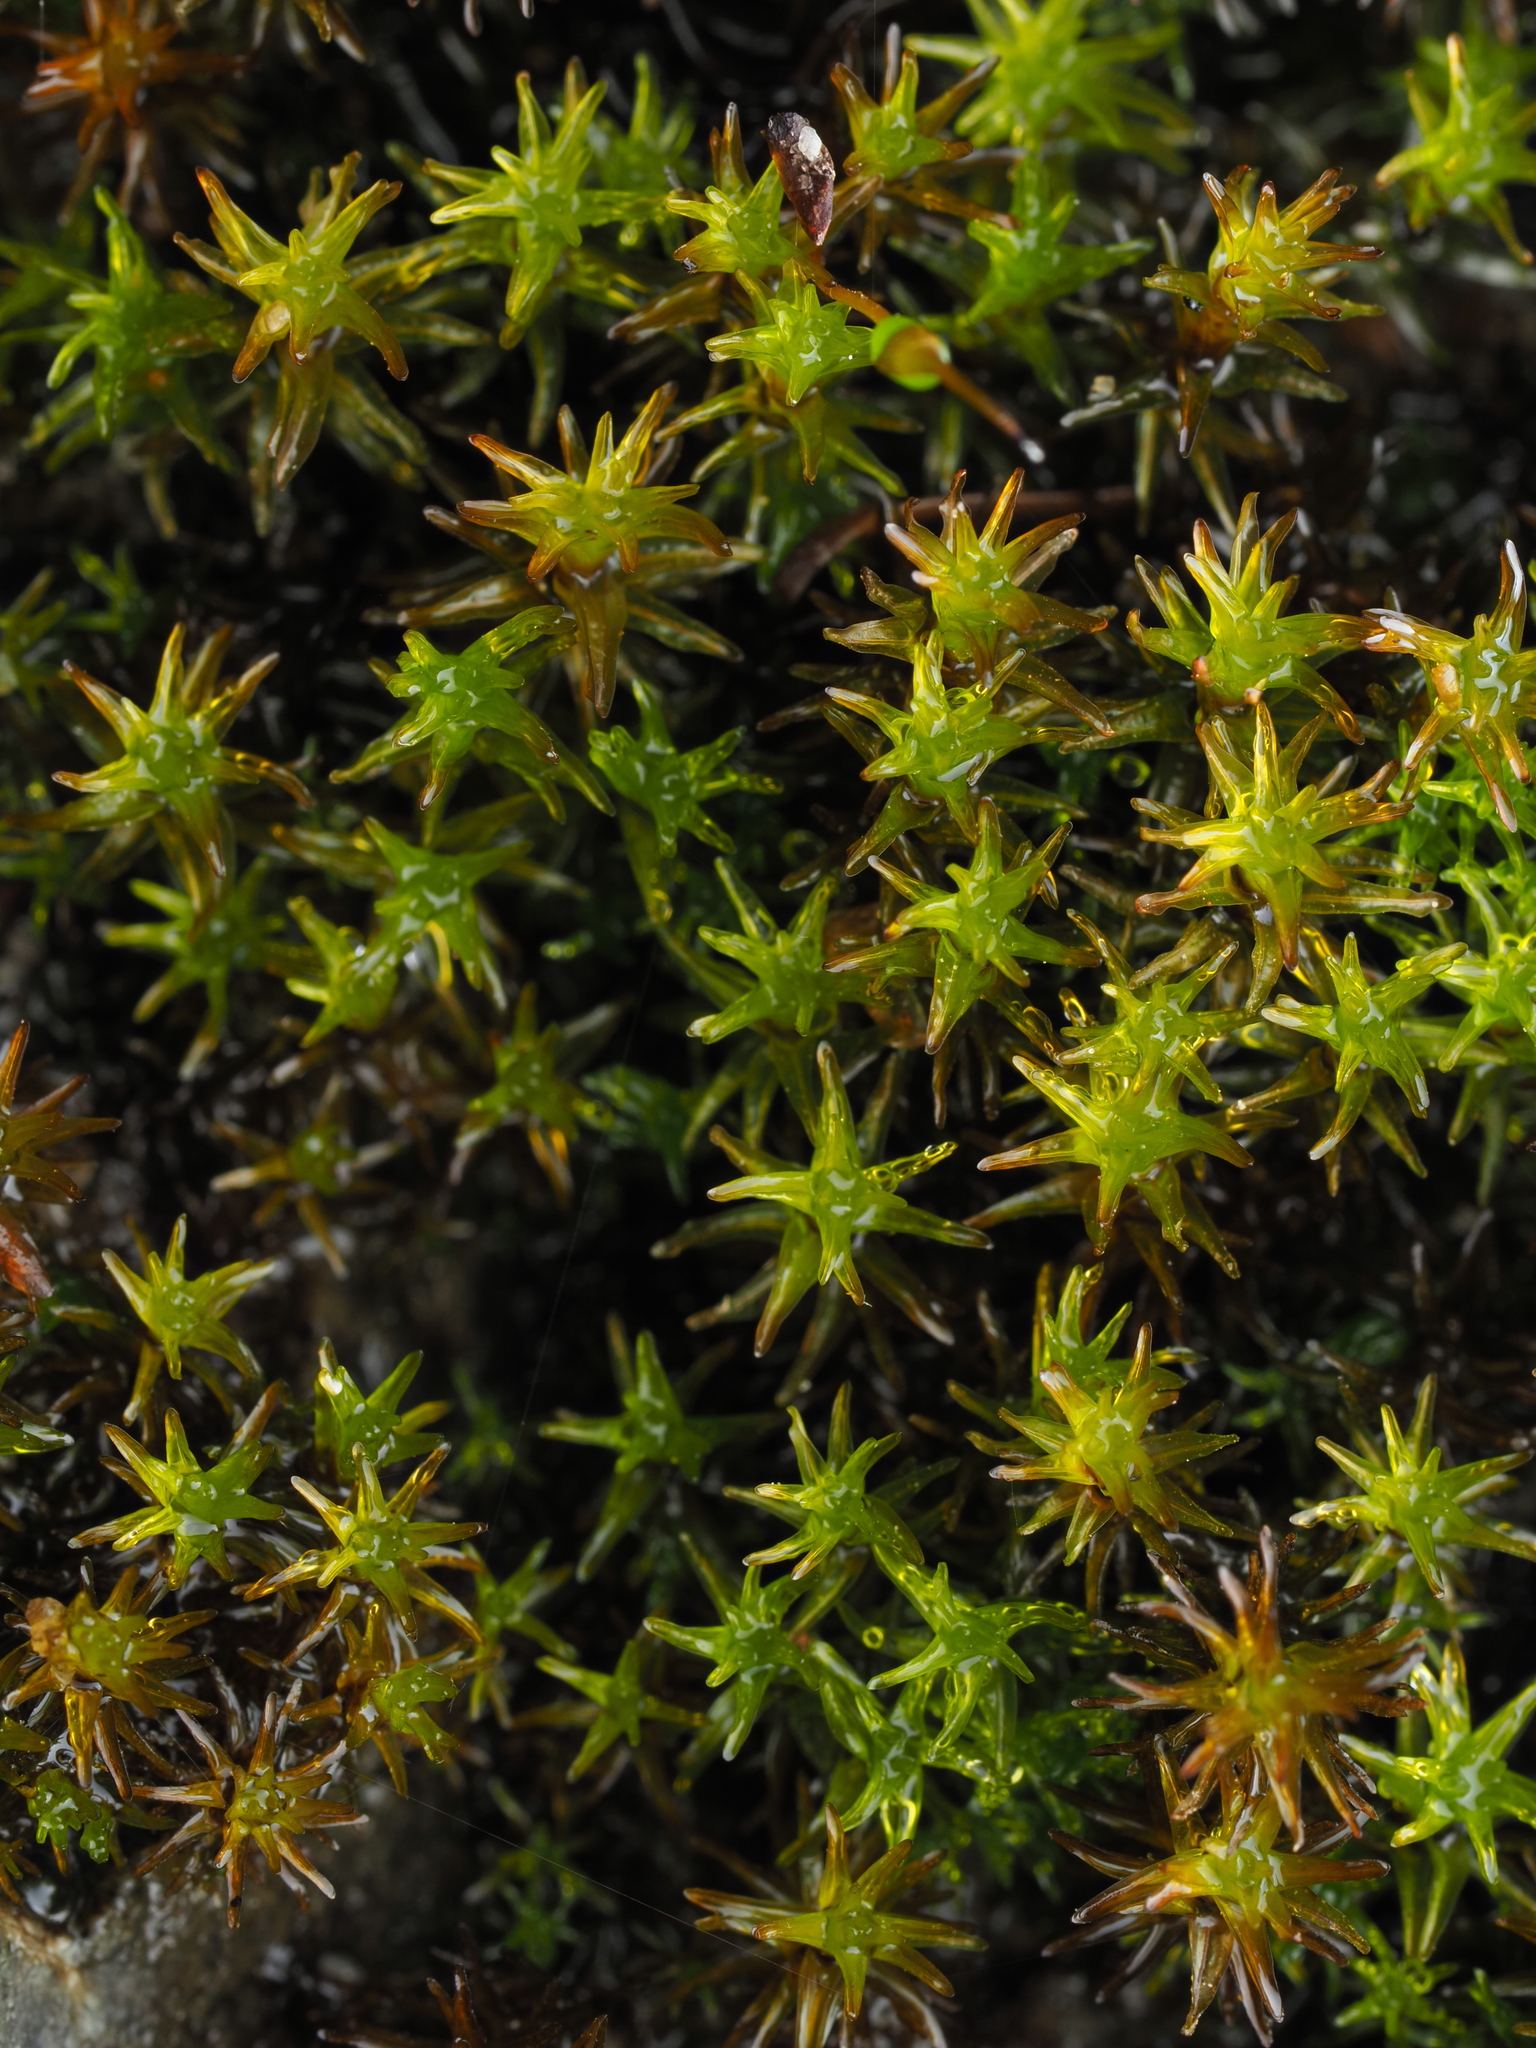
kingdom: Plantae
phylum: Bryophyta
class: Bryopsida
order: Pottiales
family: Pottiaceae
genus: Tridontium
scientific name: Tridontium tasmanicum
